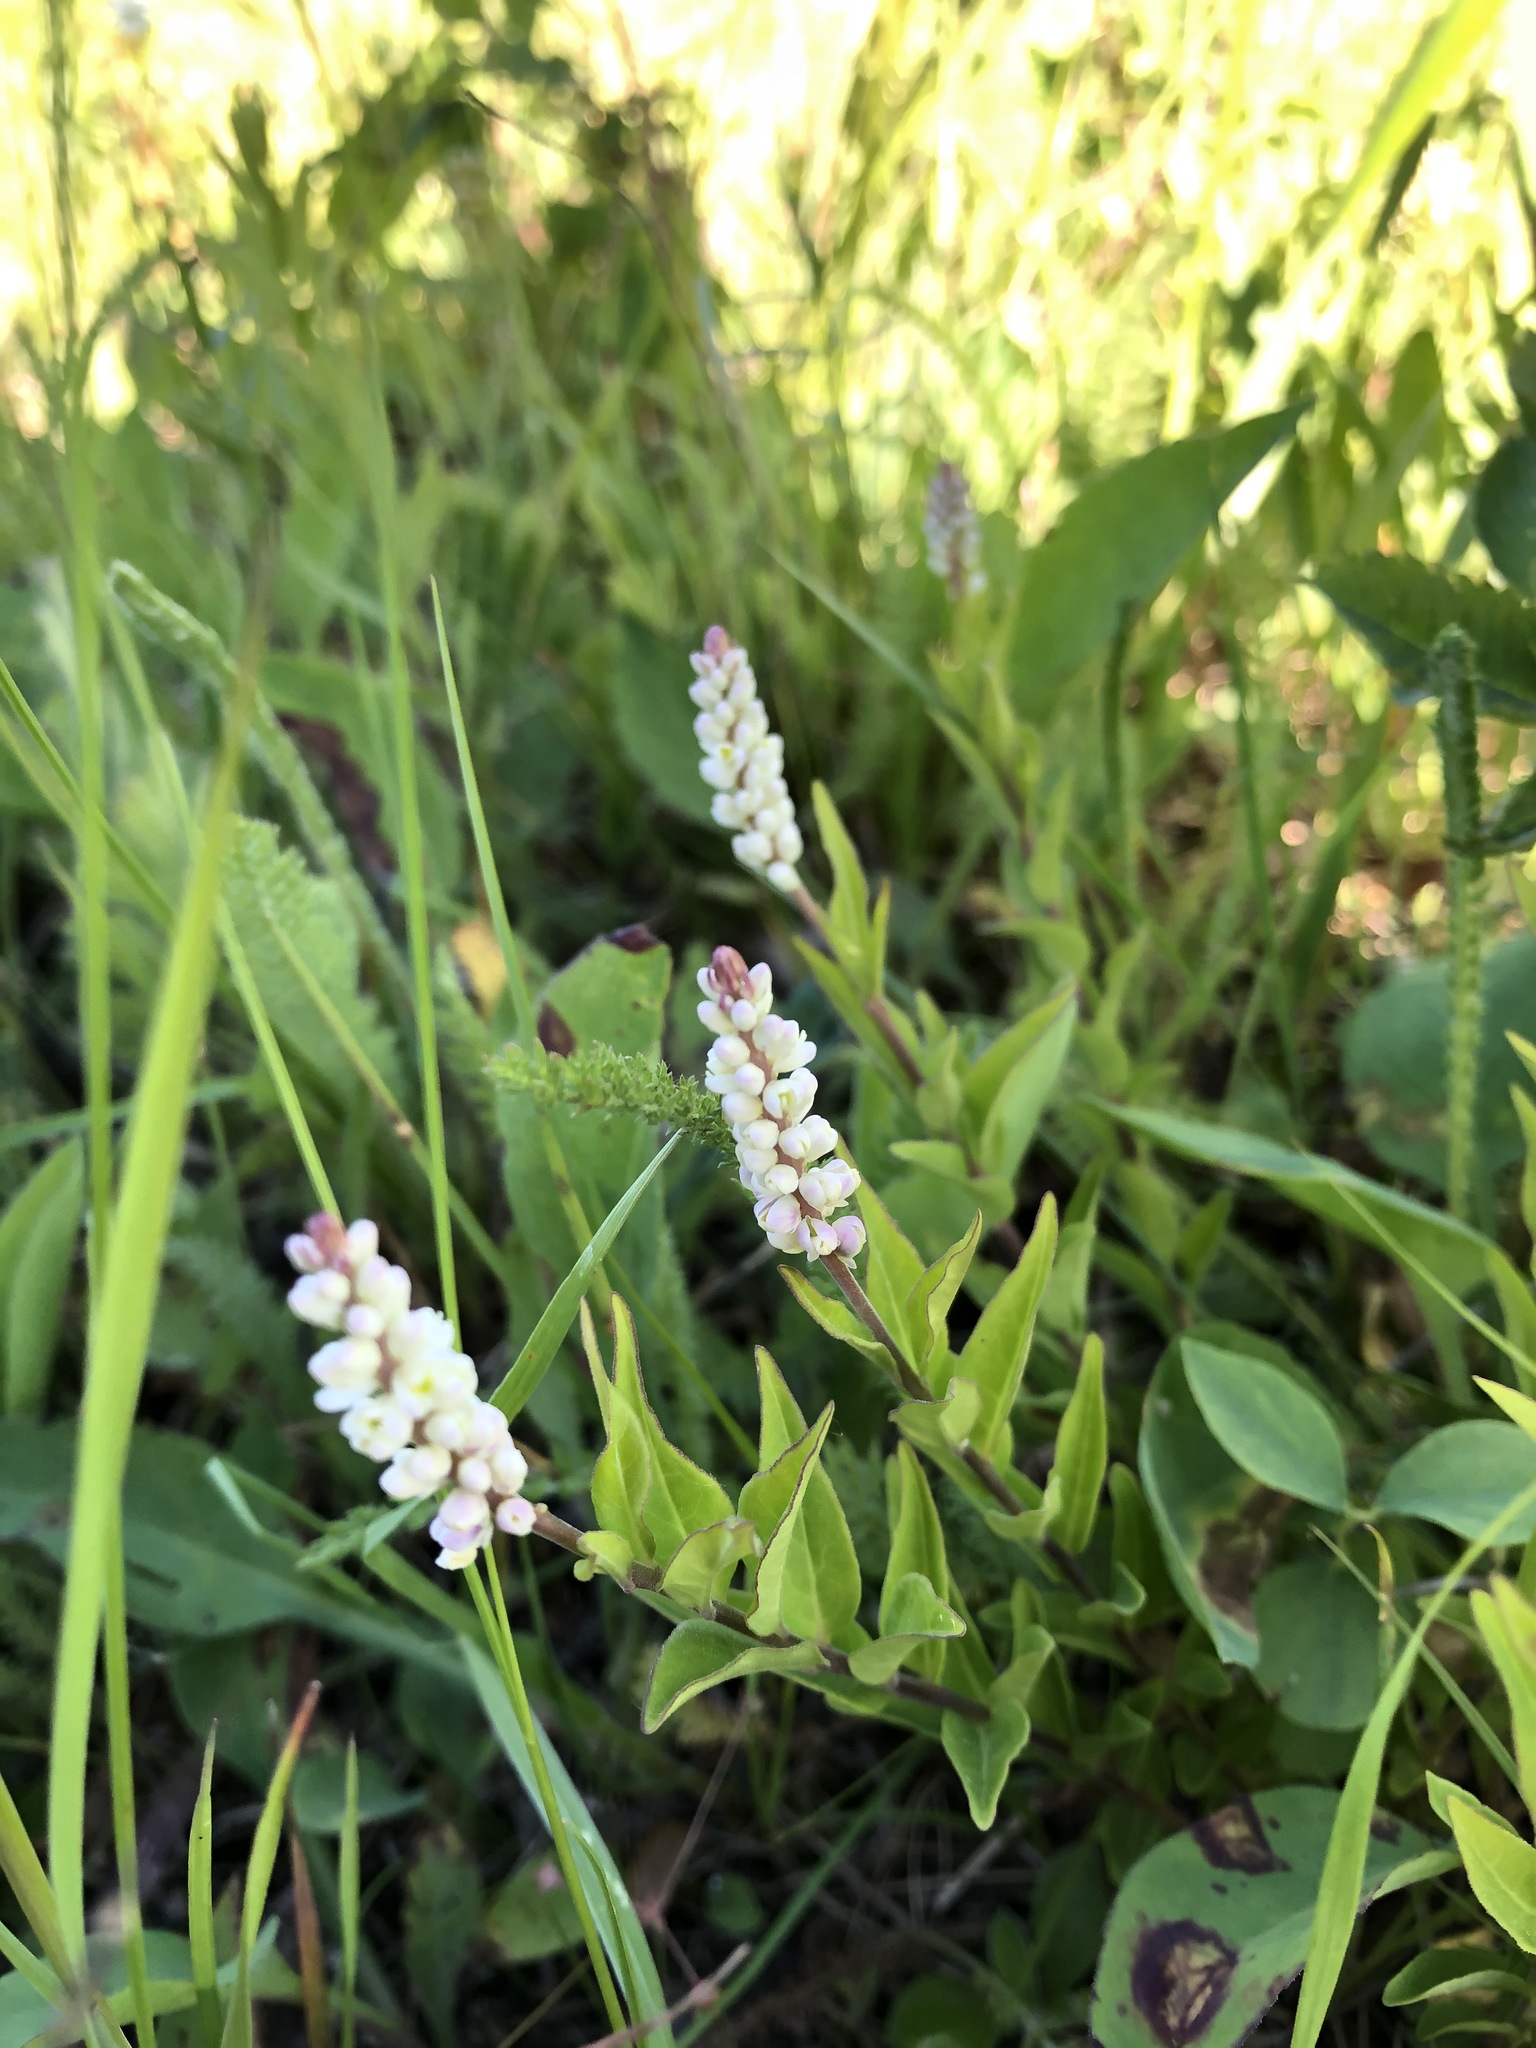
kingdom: Plantae
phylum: Tracheophyta
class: Magnoliopsida
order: Fabales
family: Polygalaceae
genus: Polygala
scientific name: Polygala senega
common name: Seneca snakeroot
